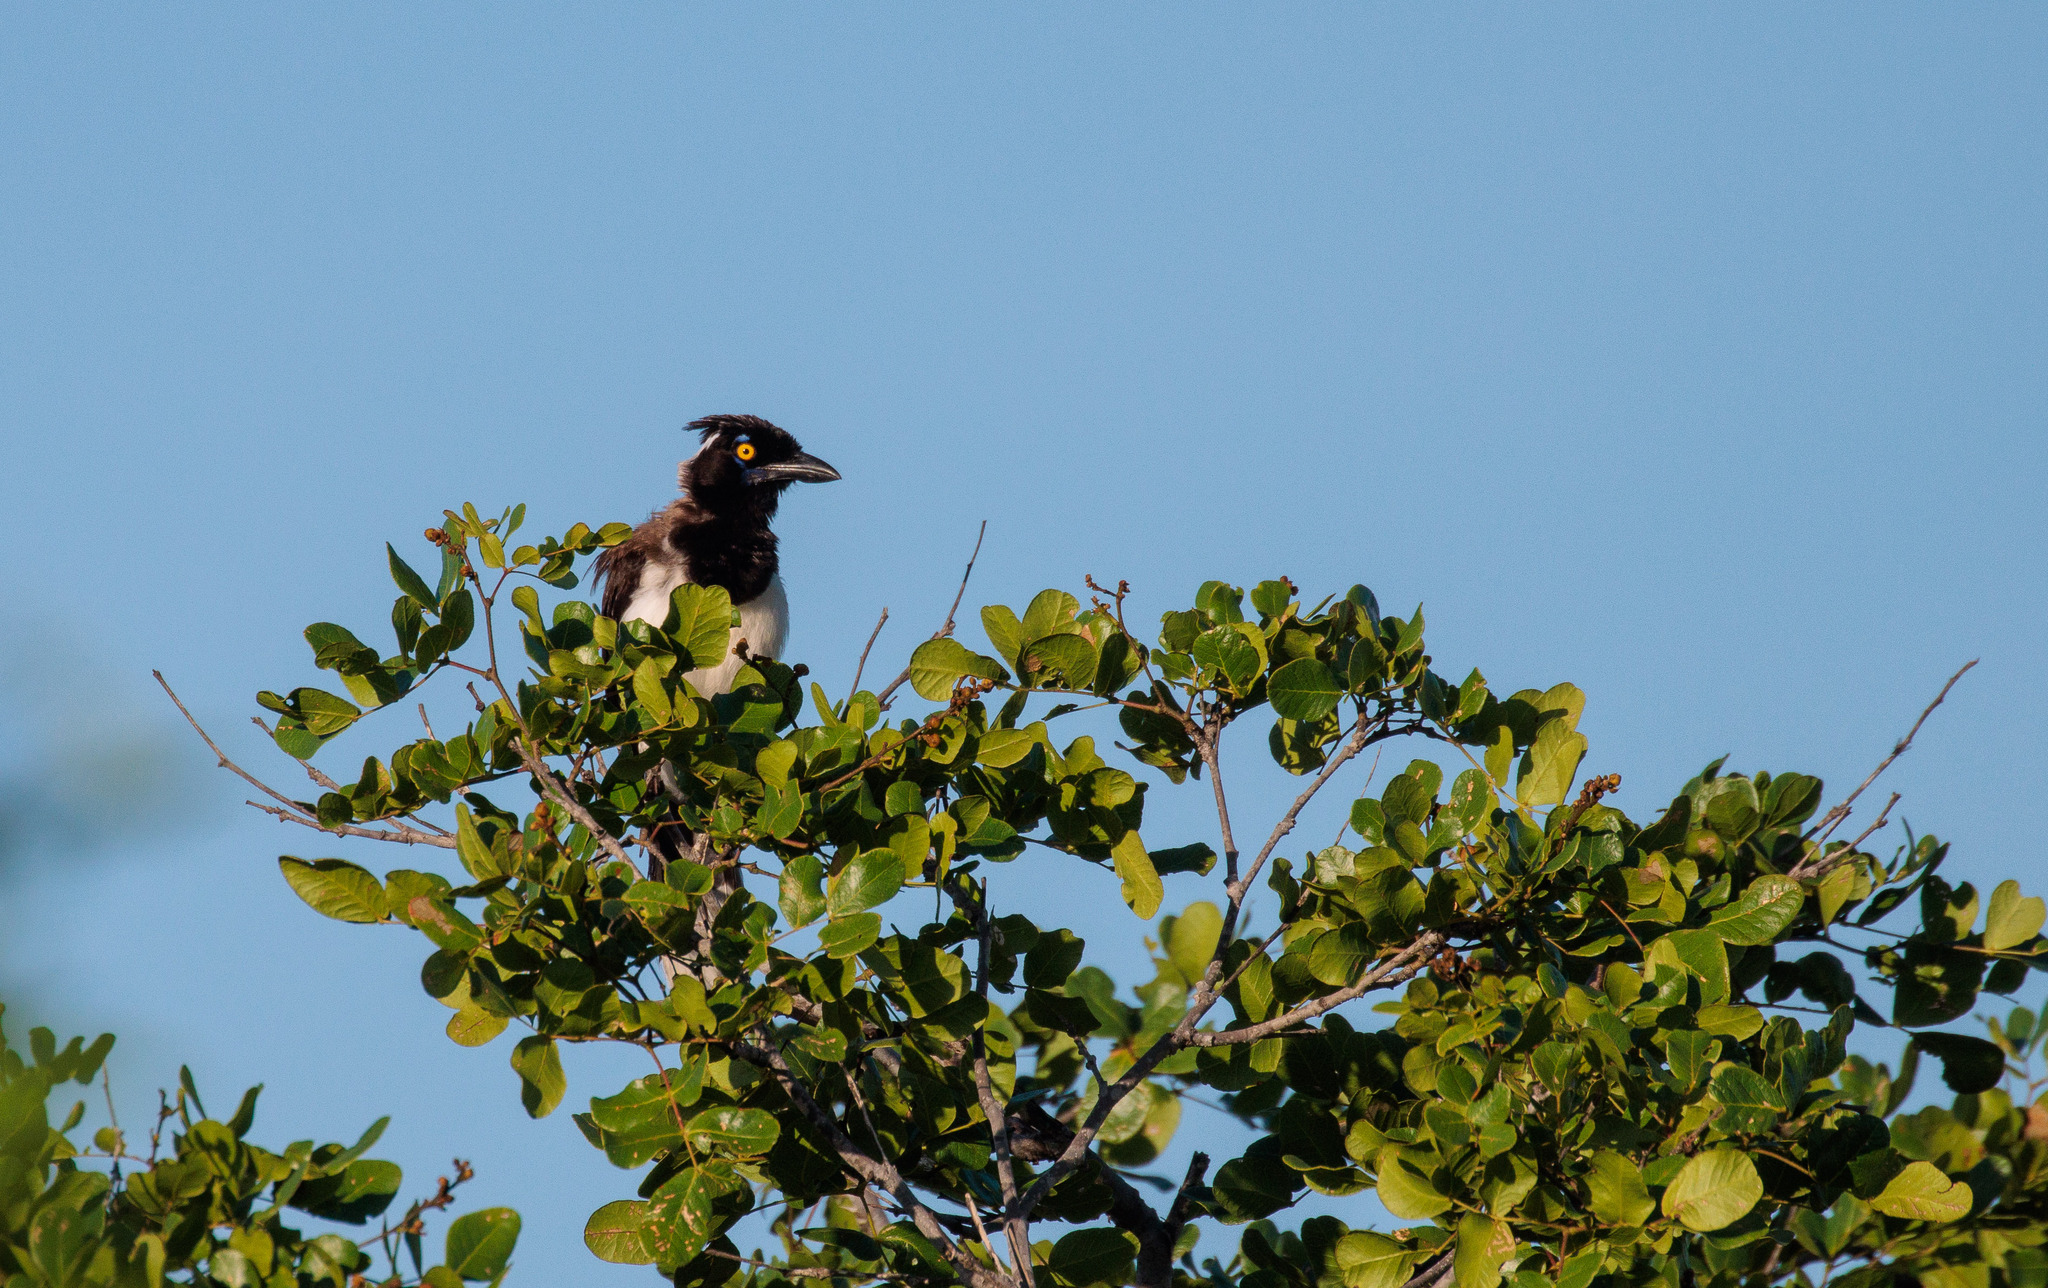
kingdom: Animalia
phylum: Chordata
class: Aves
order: Passeriformes
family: Corvidae
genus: Cyanocorax
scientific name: Cyanocorax cyanopogon
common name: White-naped jay
